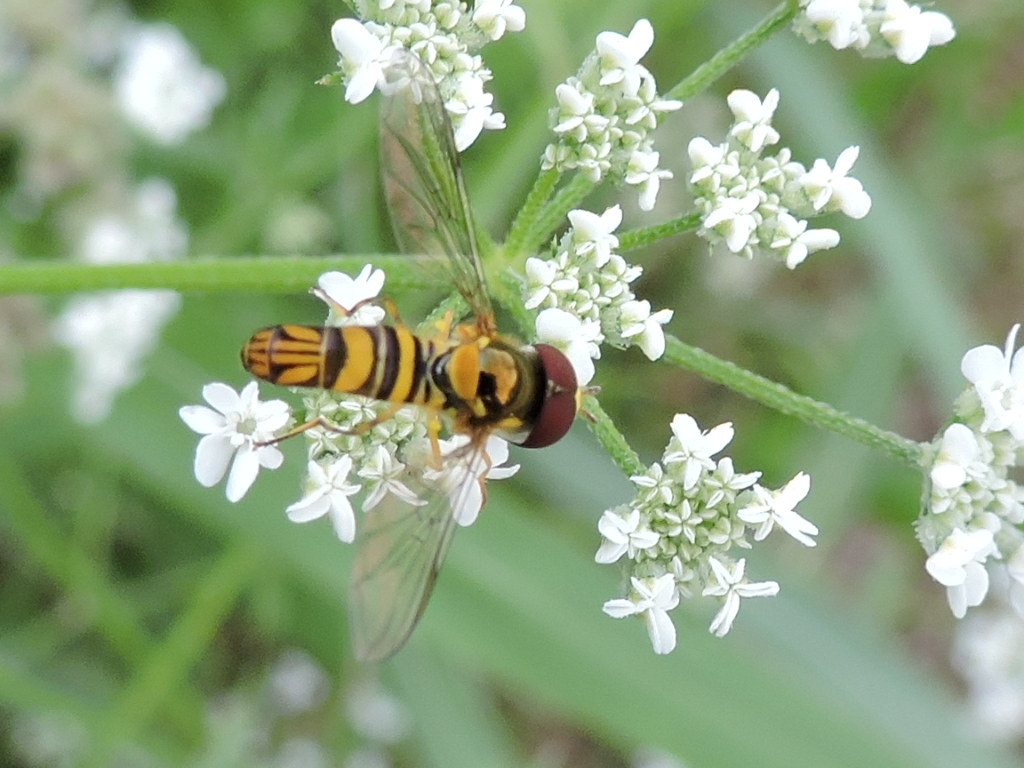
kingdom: Animalia
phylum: Arthropoda
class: Insecta
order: Diptera
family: Syrphidae
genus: Allograpta
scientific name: Allograpta obliqua
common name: Common oblique syrphid
